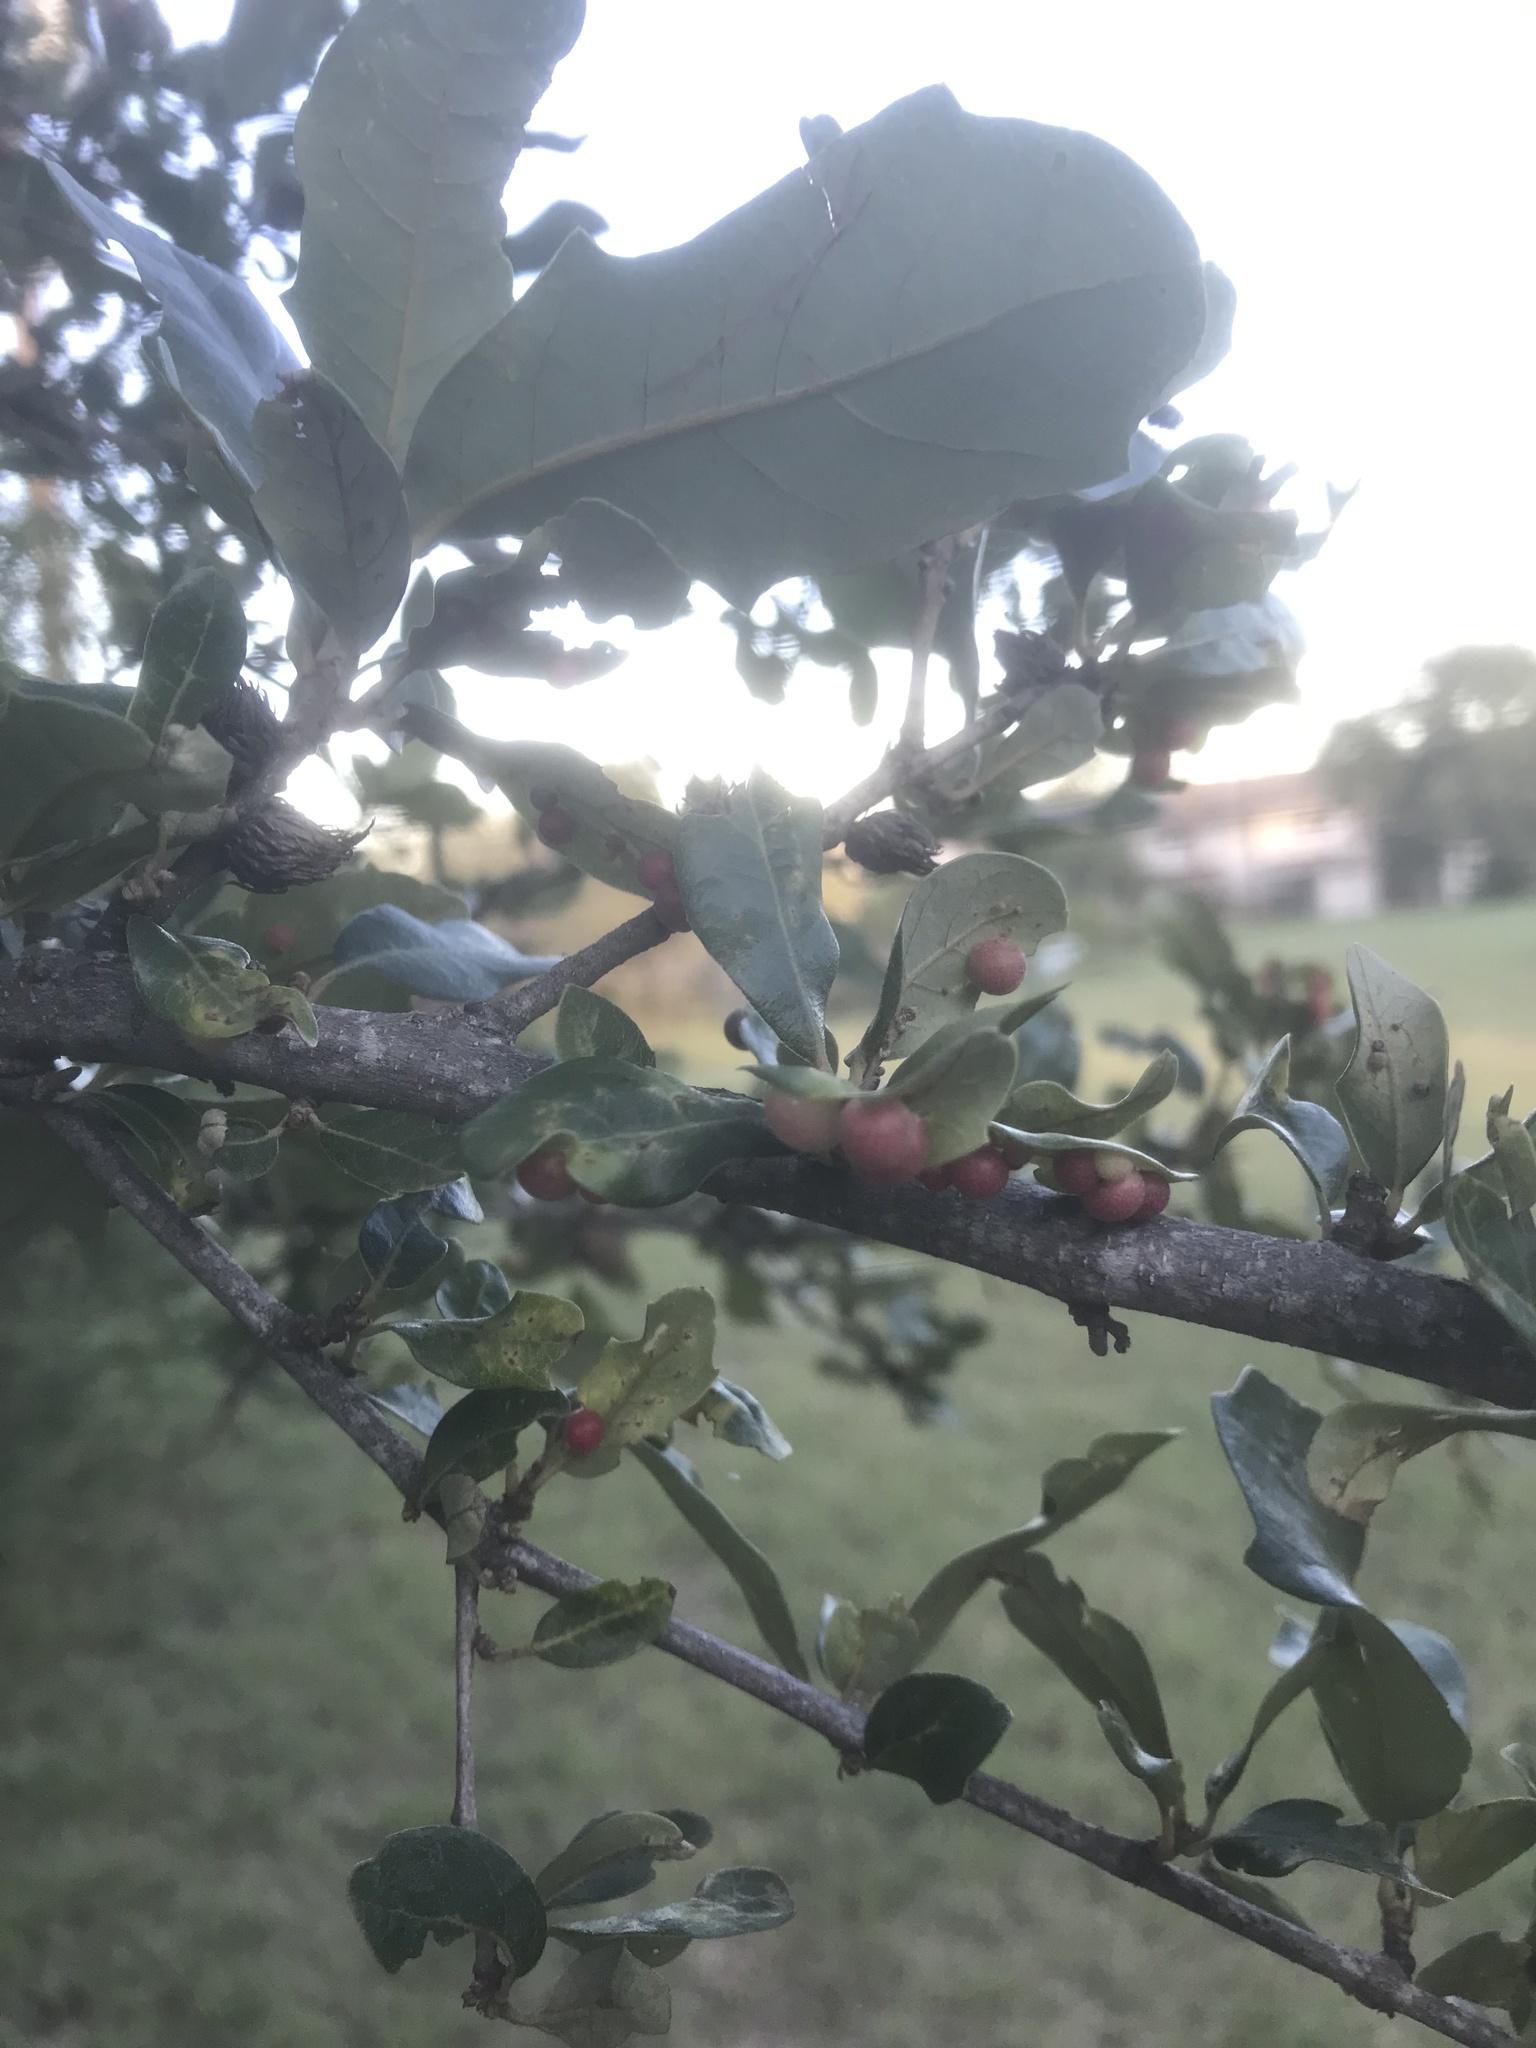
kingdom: Animalia
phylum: Arthropoda
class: Insecta
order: Hymenoptera
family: Cynipidae
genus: Andricus
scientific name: Andricus quercusfoliatus
